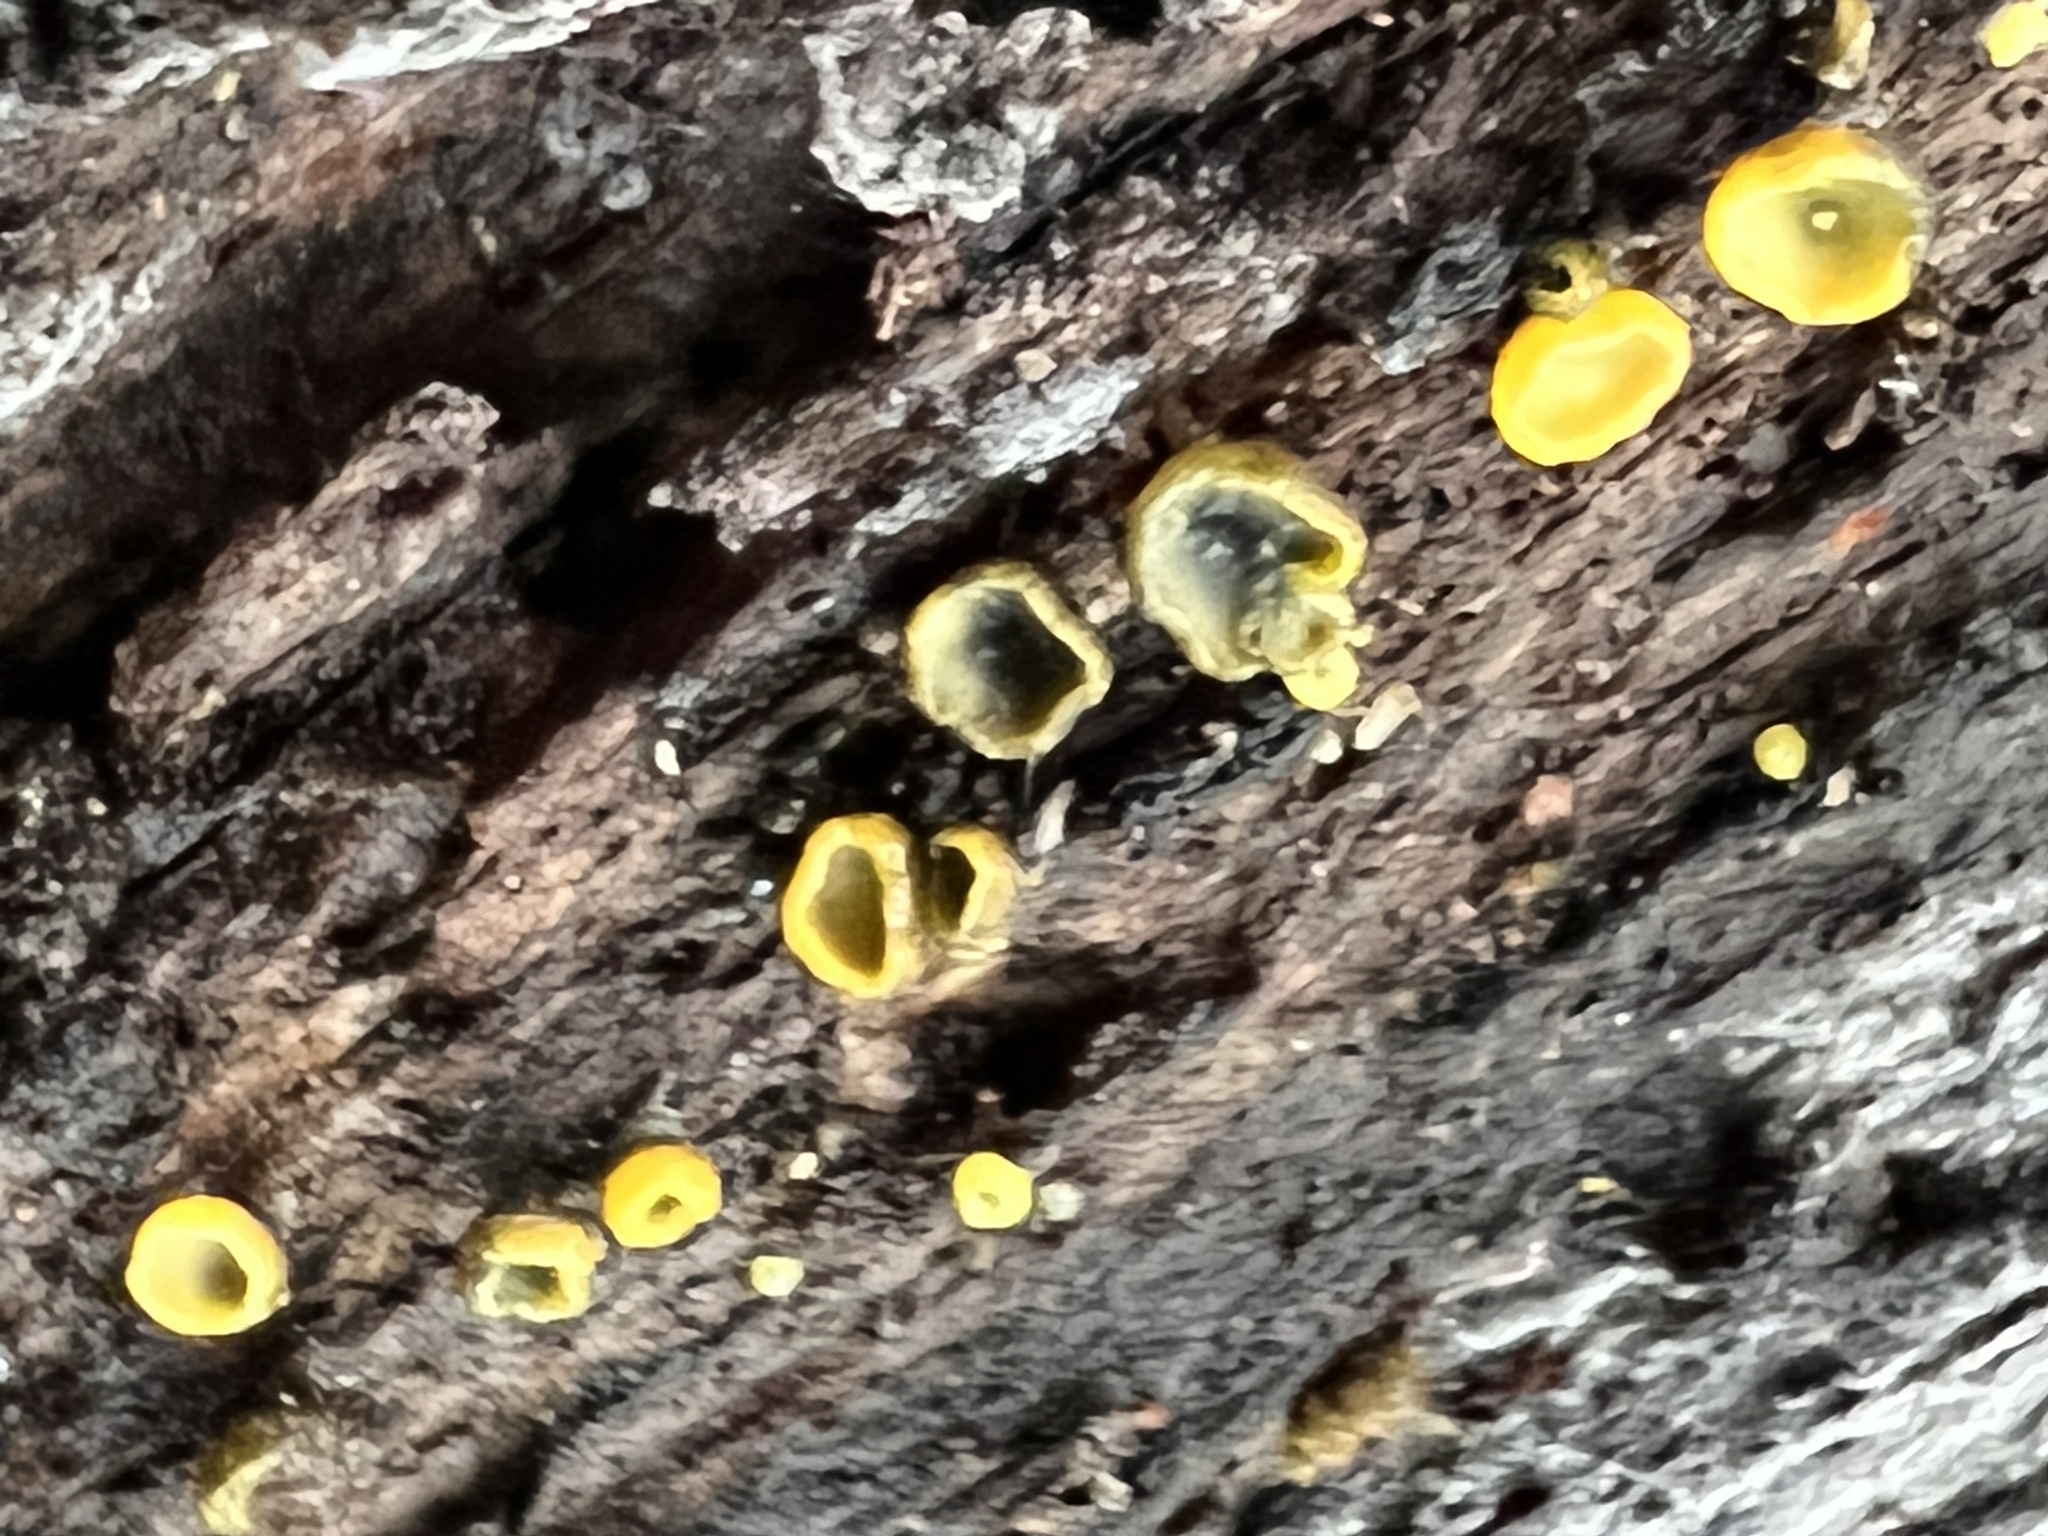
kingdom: Fungi
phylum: Ascomycota
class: Leotiomycetes
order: Helotiales
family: Chlorospleniaceae
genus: Chlorosplenium
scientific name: Chlorosplenium chlora
